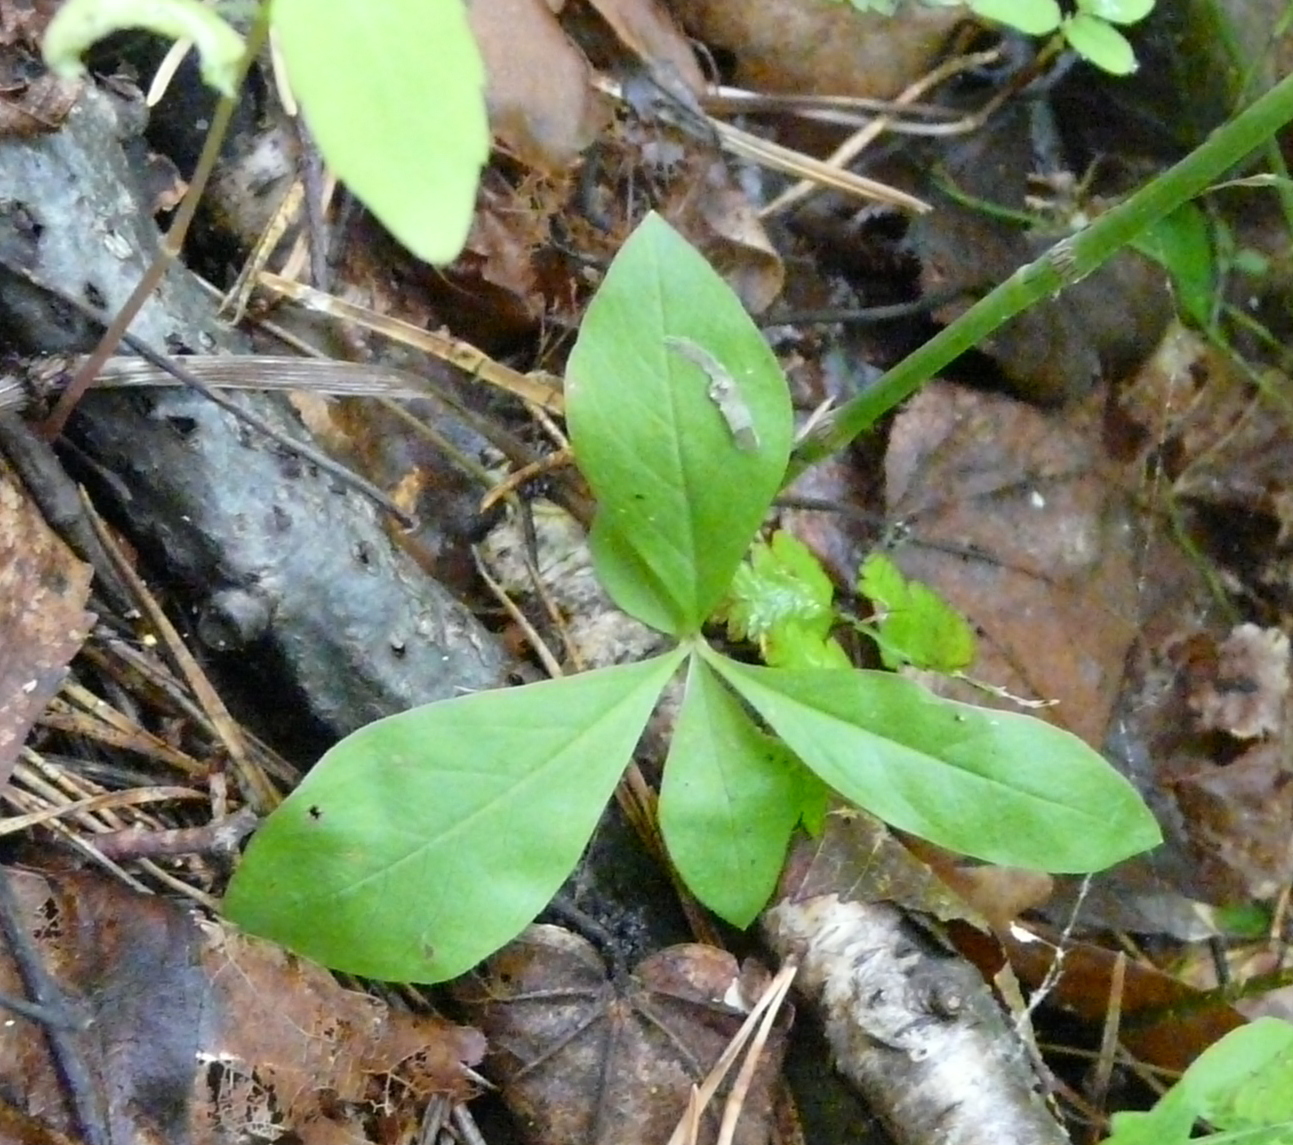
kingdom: Plantae
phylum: Tracheophyta
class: Magnoliopsida
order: Ericales
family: Primulaceae
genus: Lysimachia
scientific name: Lysimachia europaea
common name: Arctic starflower
